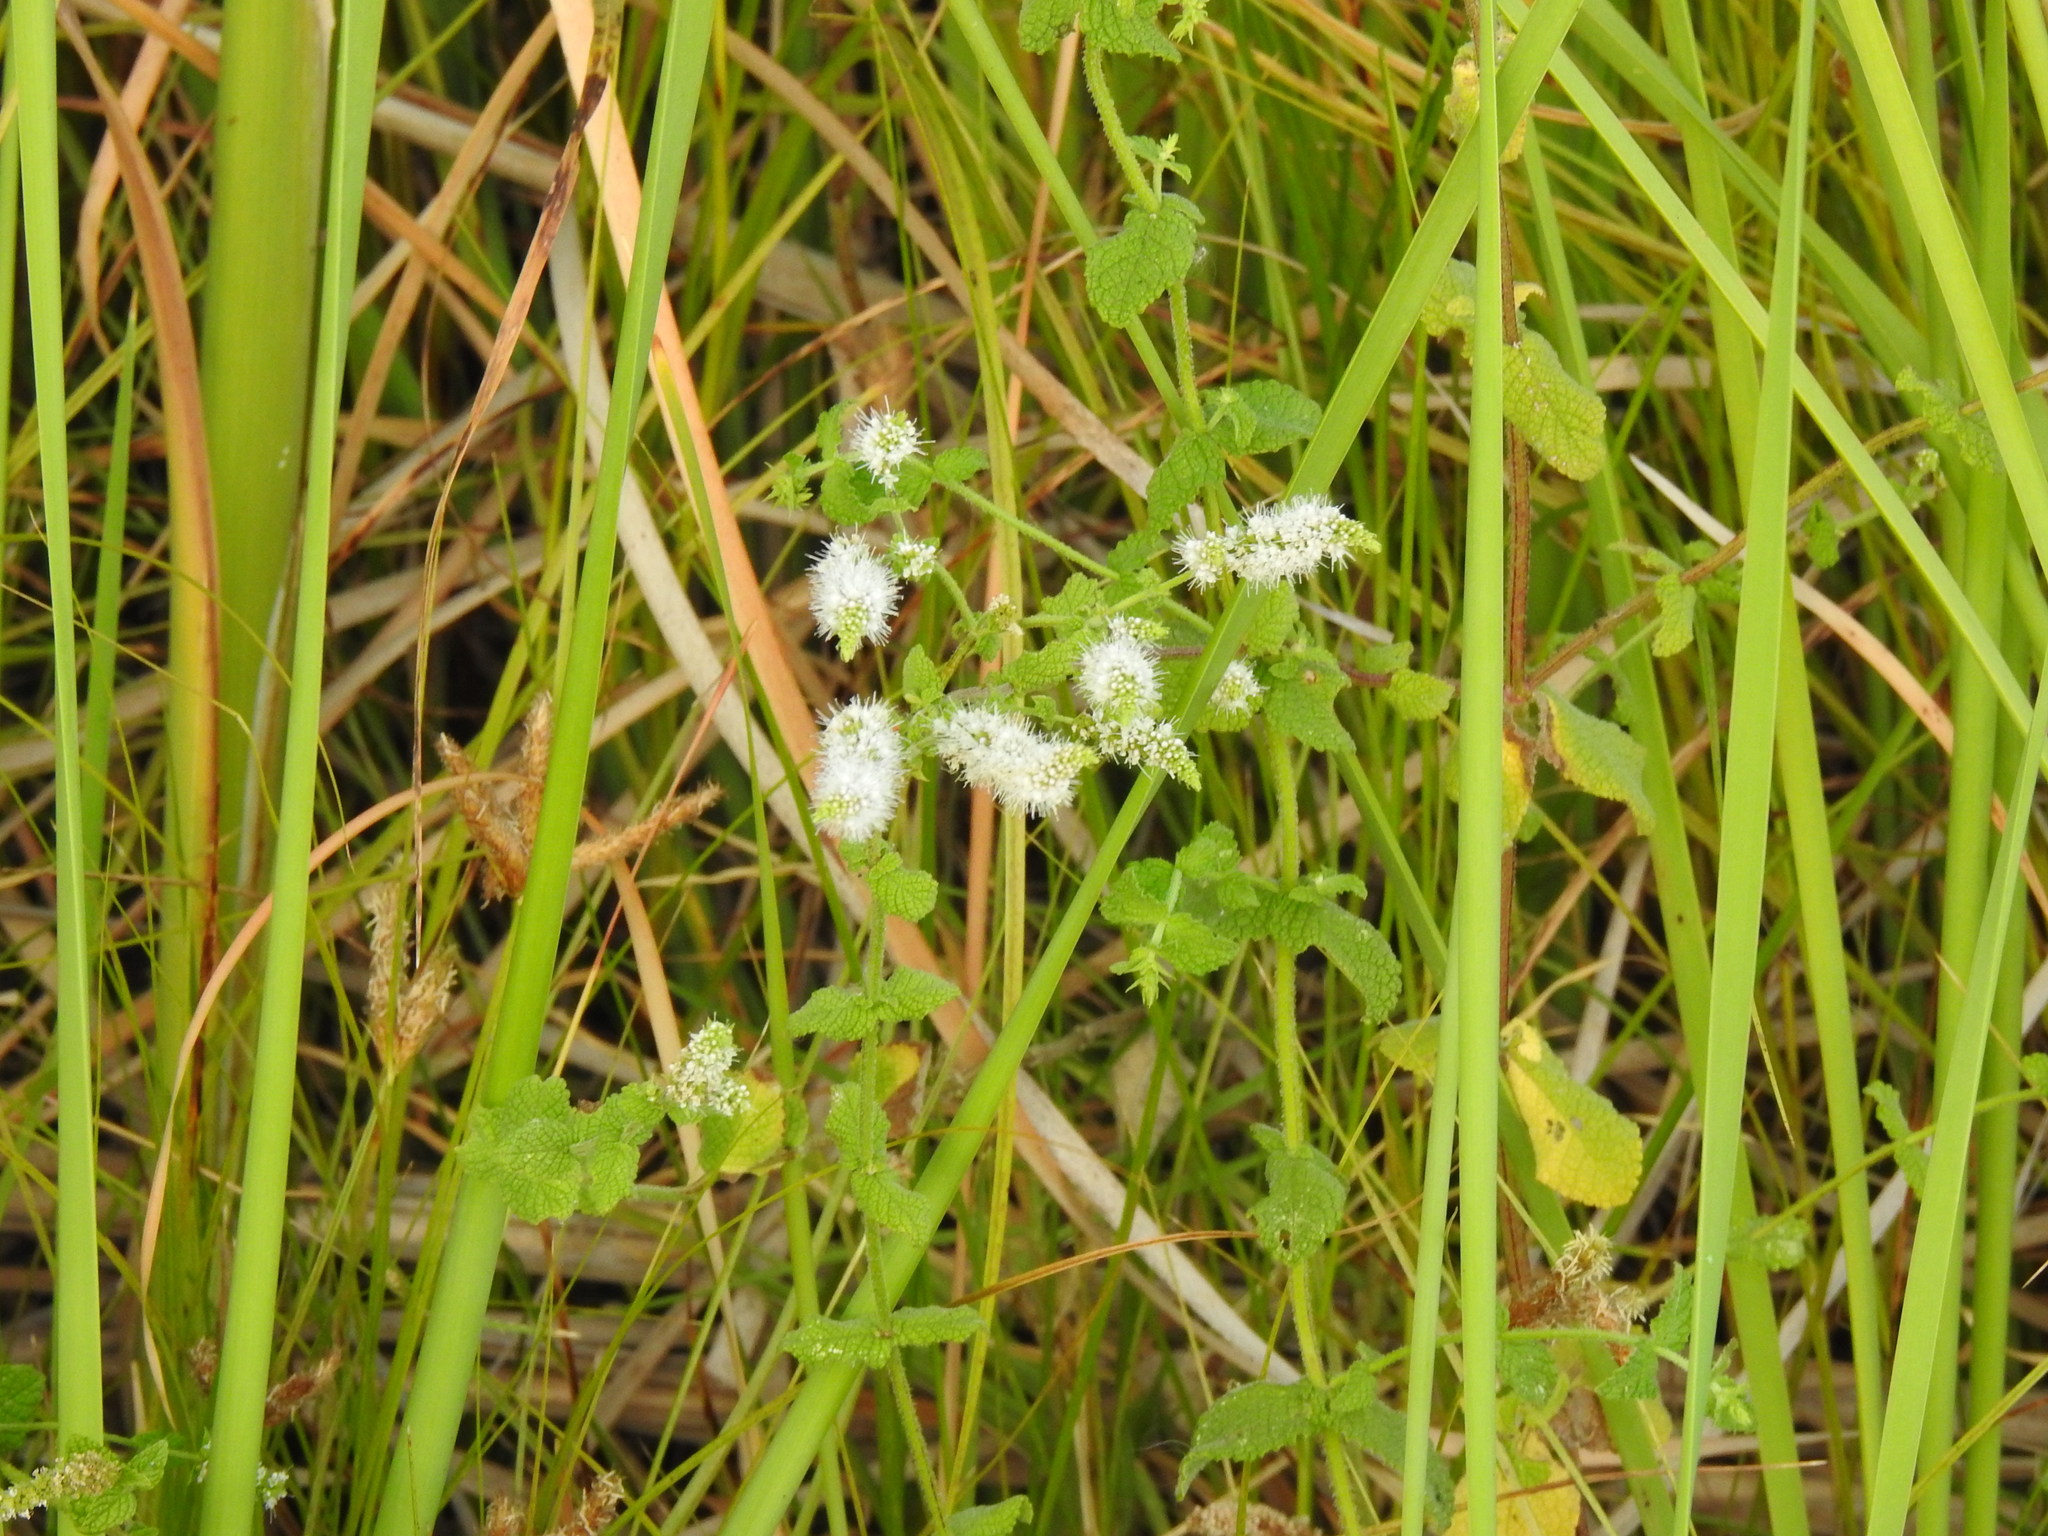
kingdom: Plantae
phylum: Tracheophyta
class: Magnoliopsida
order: Lamiales
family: Lamiaceae
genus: Mentha
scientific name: Mentha suaveolens
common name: Apple mint
